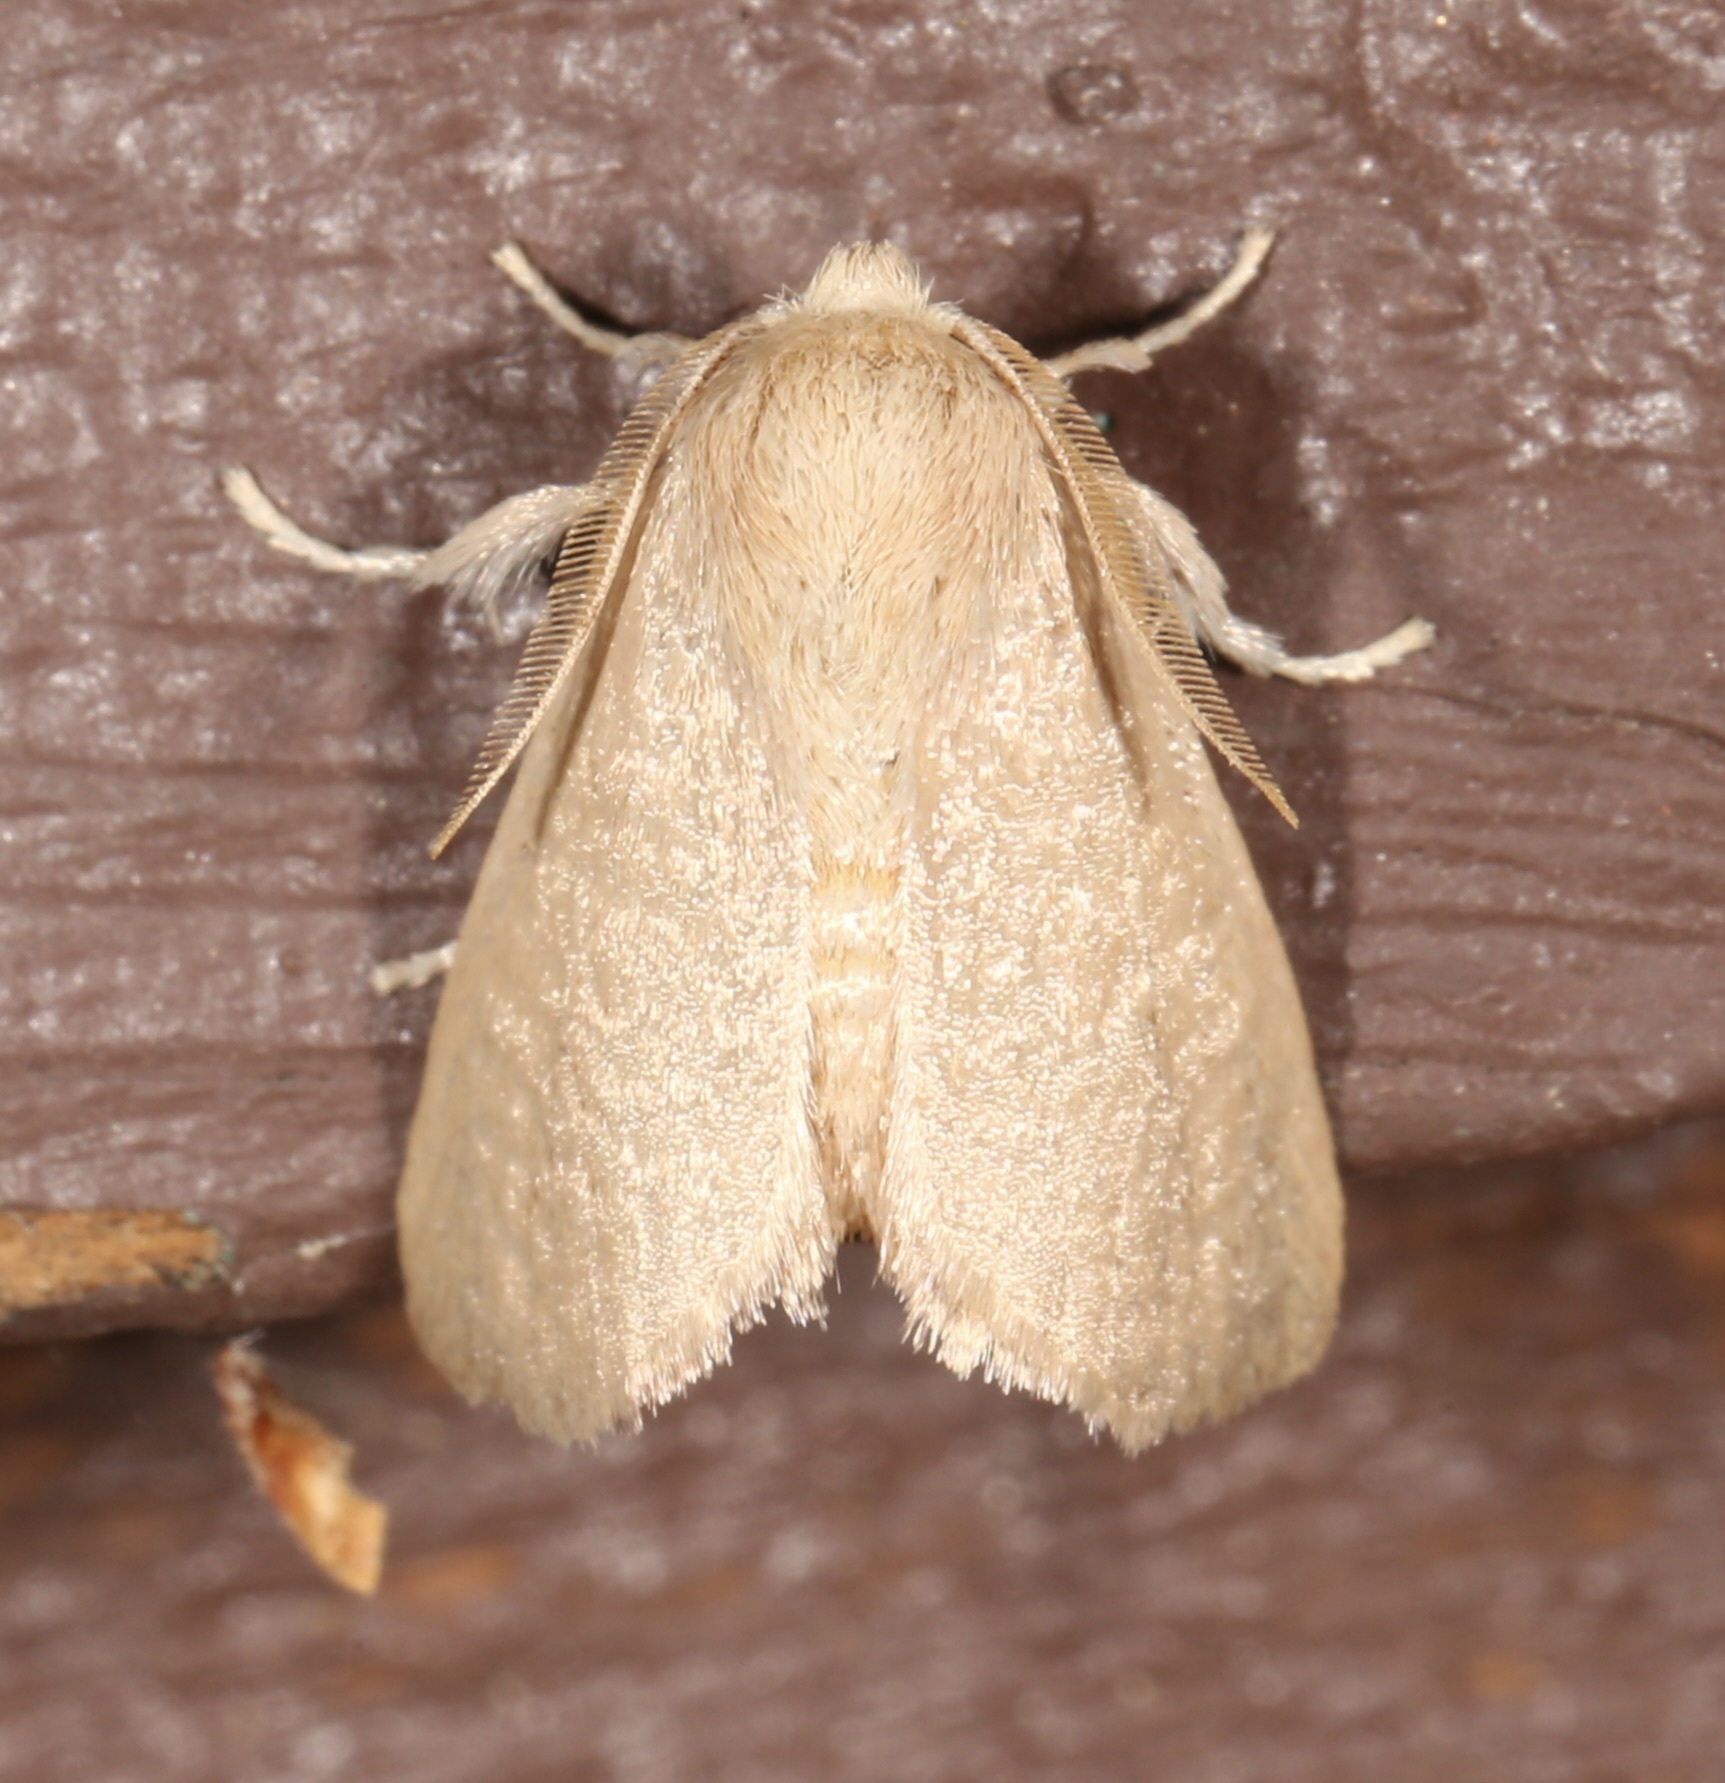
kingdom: Animalia
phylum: Arthropoda
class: Insecta
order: Lepidoptera
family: Limacodidae
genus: Isa
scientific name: Isa schaefferana
